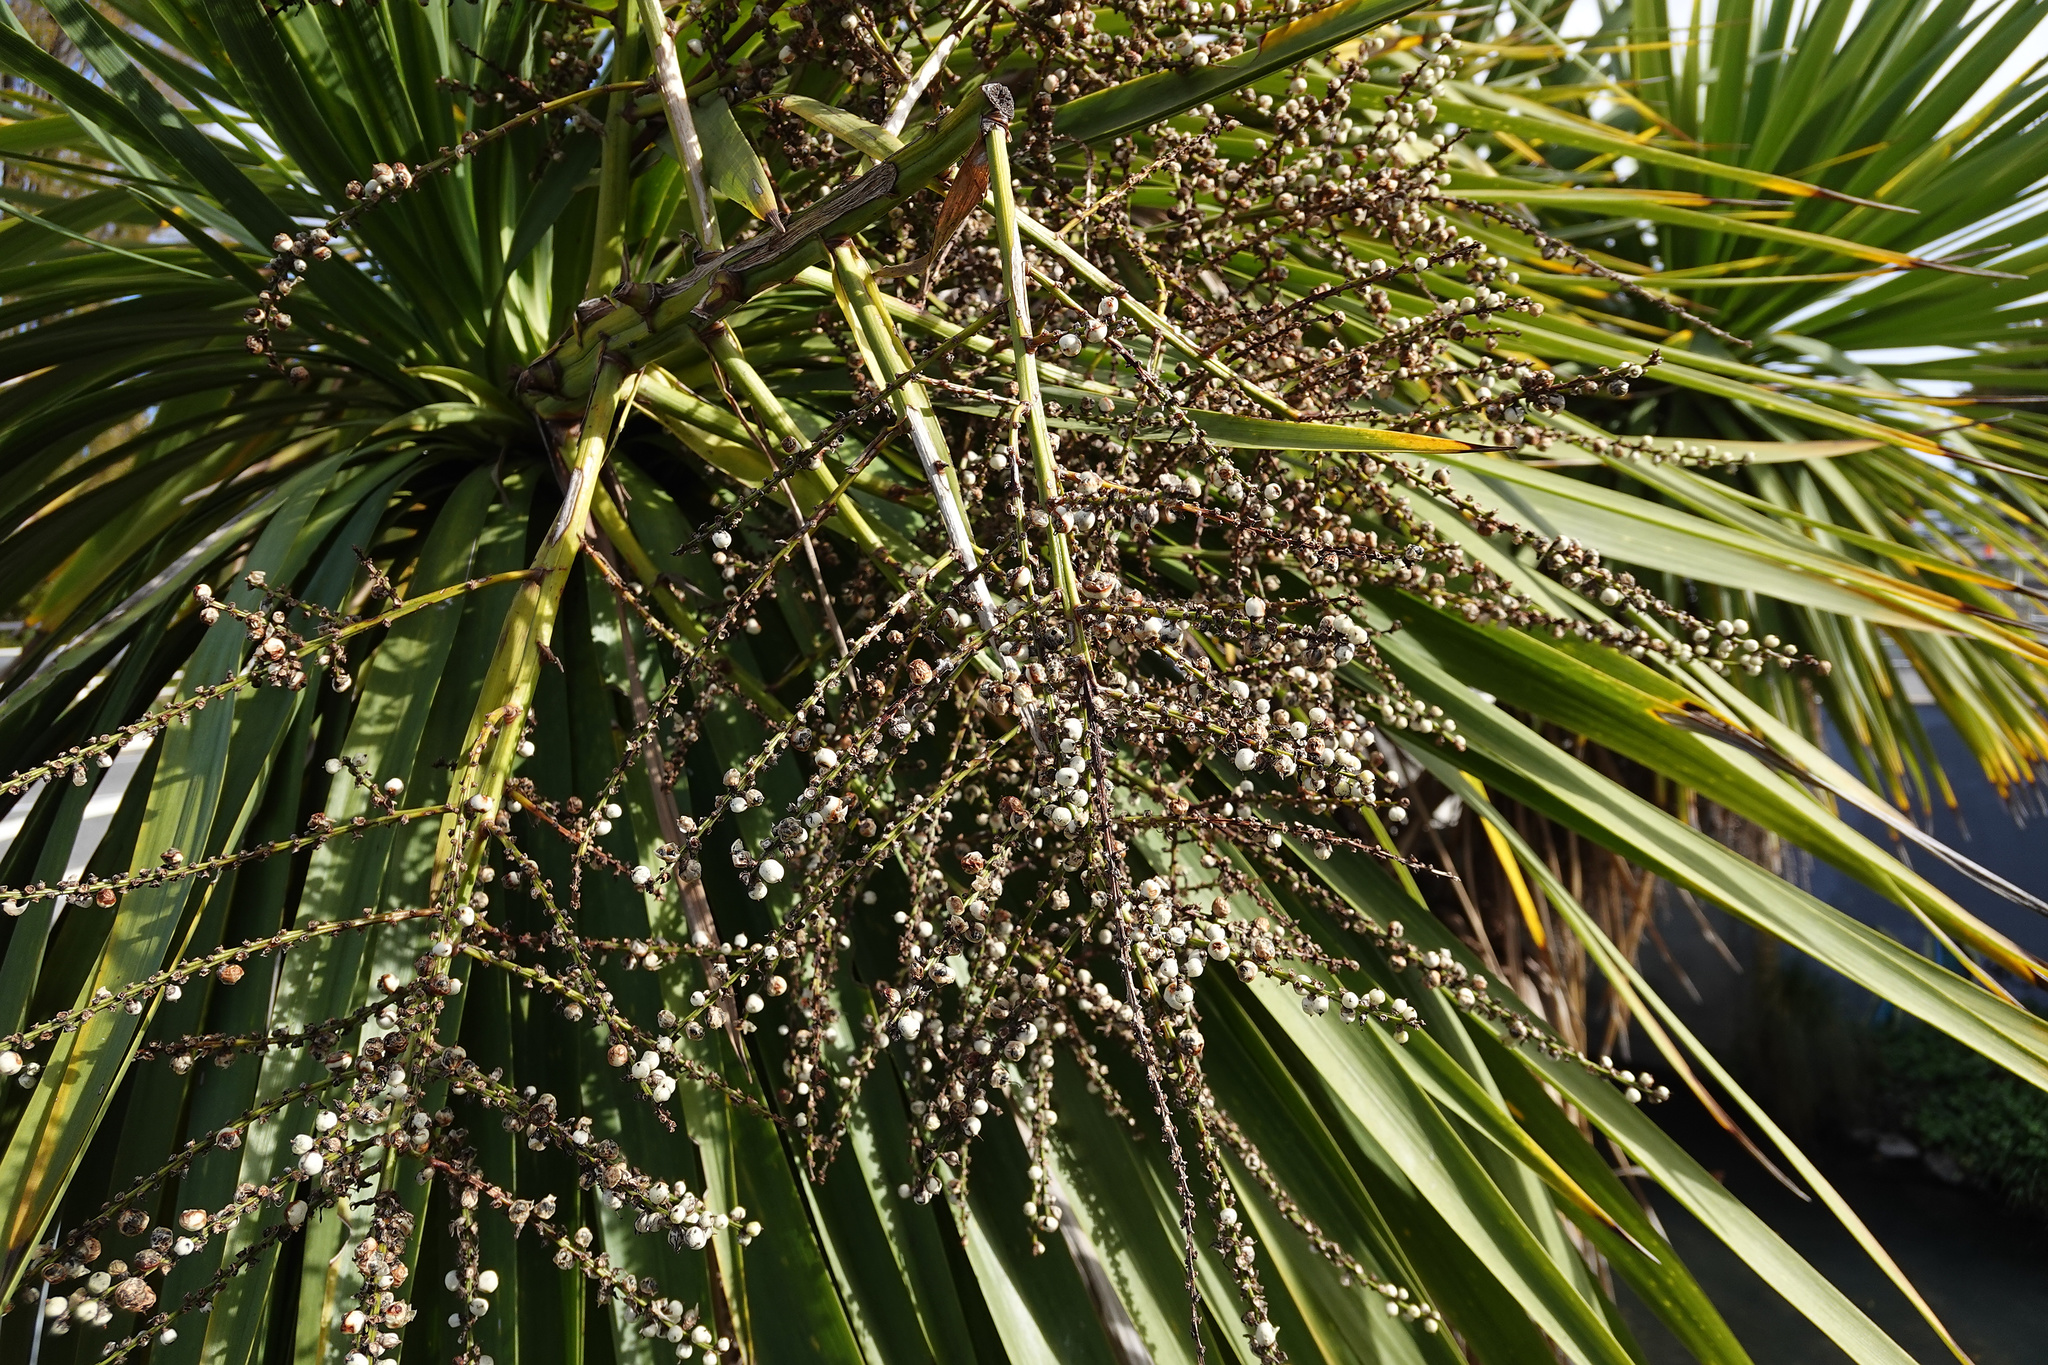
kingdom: Plantae
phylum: Tracheophyta
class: Liliopsida
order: Asparagales
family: Asparagaceae
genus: Cordyline
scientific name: Cordyline australis
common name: Cabbage-palm
